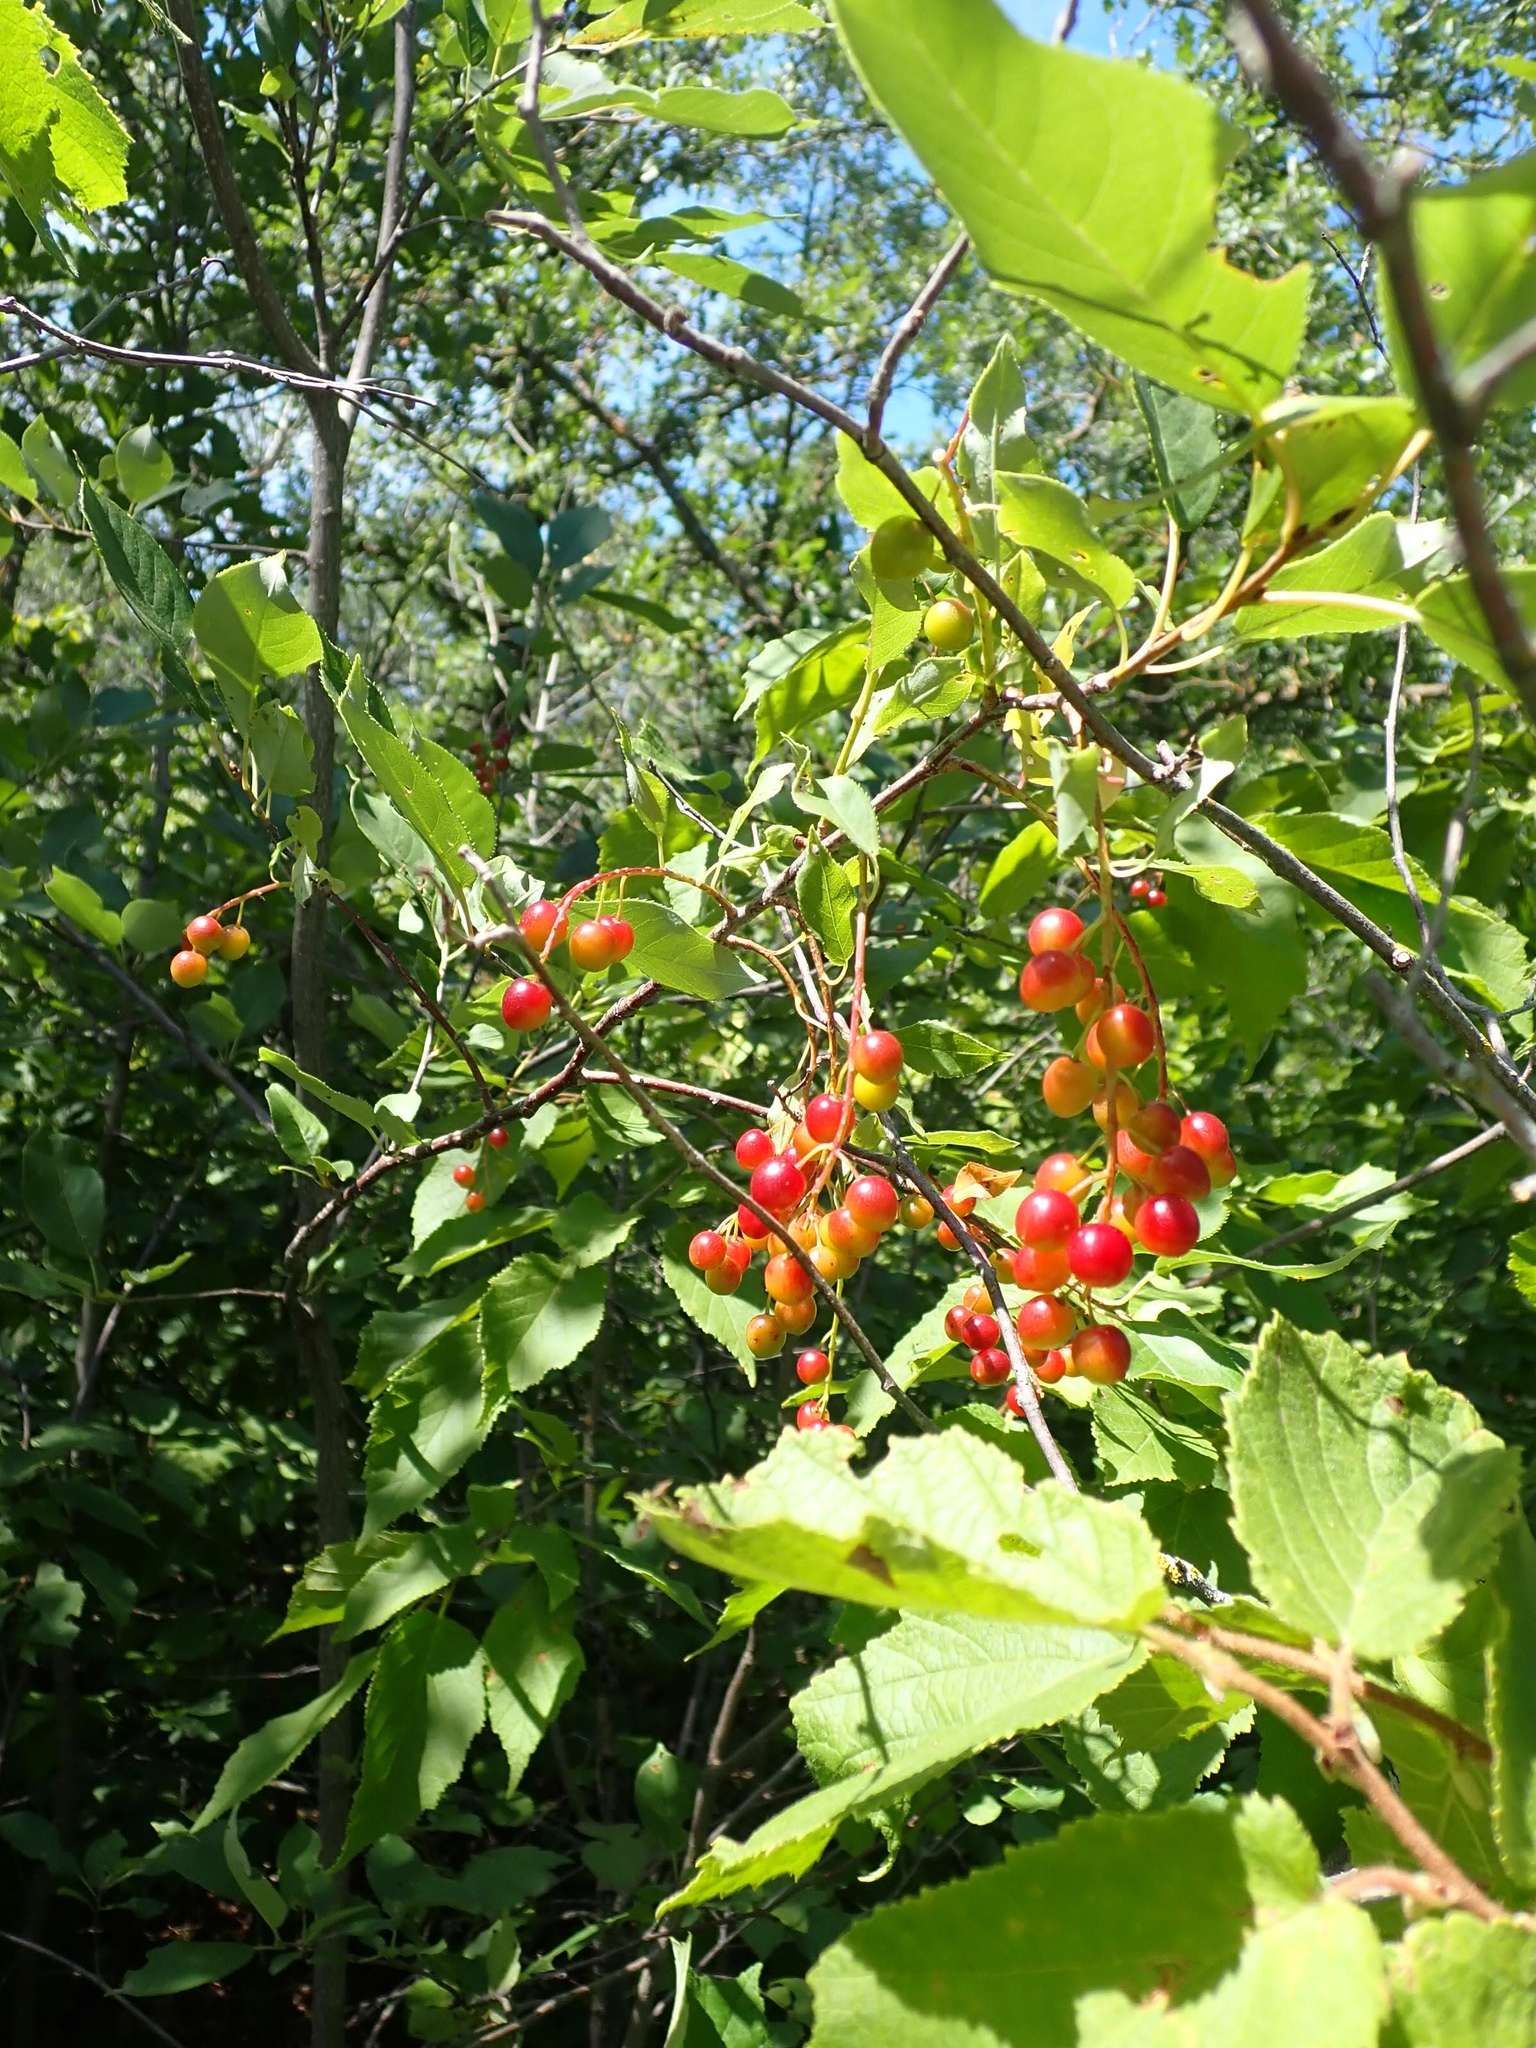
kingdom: Plantae
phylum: Tracheophyta
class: Magnoliopsida
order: Rosales
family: Rosaceae
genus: Prunus
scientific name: Prunus virginiana
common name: Chokecherry
